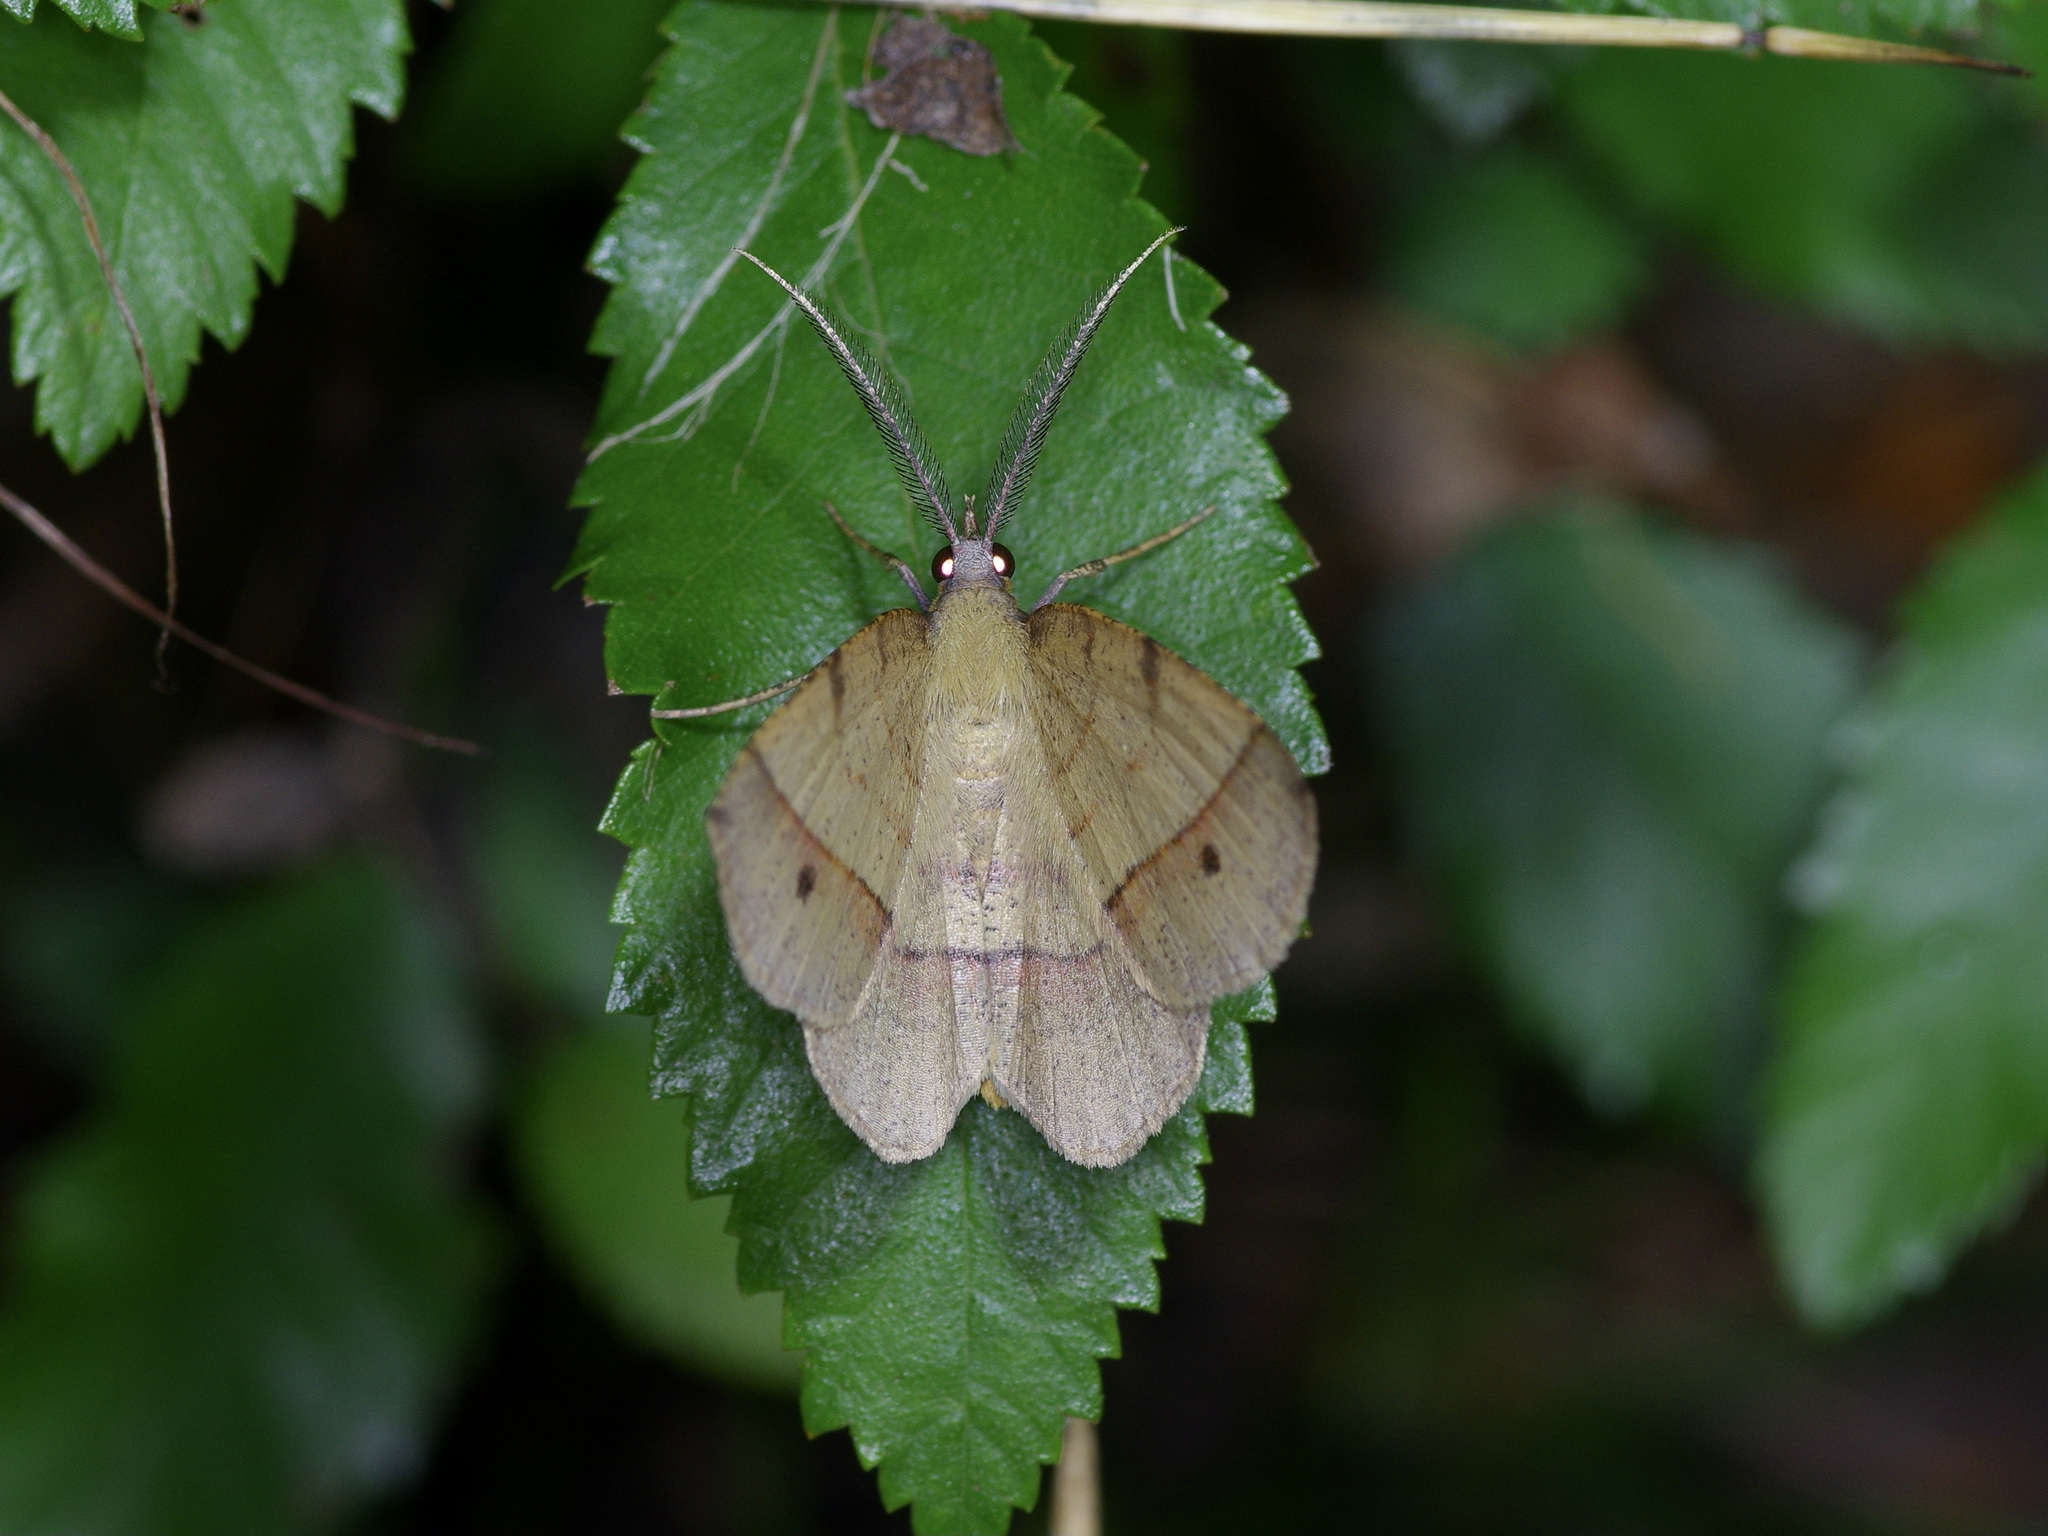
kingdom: Animalia
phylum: Arthropoda
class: Insecta
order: Lepidoptera
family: Geometridae
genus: Erastria
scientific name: Erastria cruentaria
